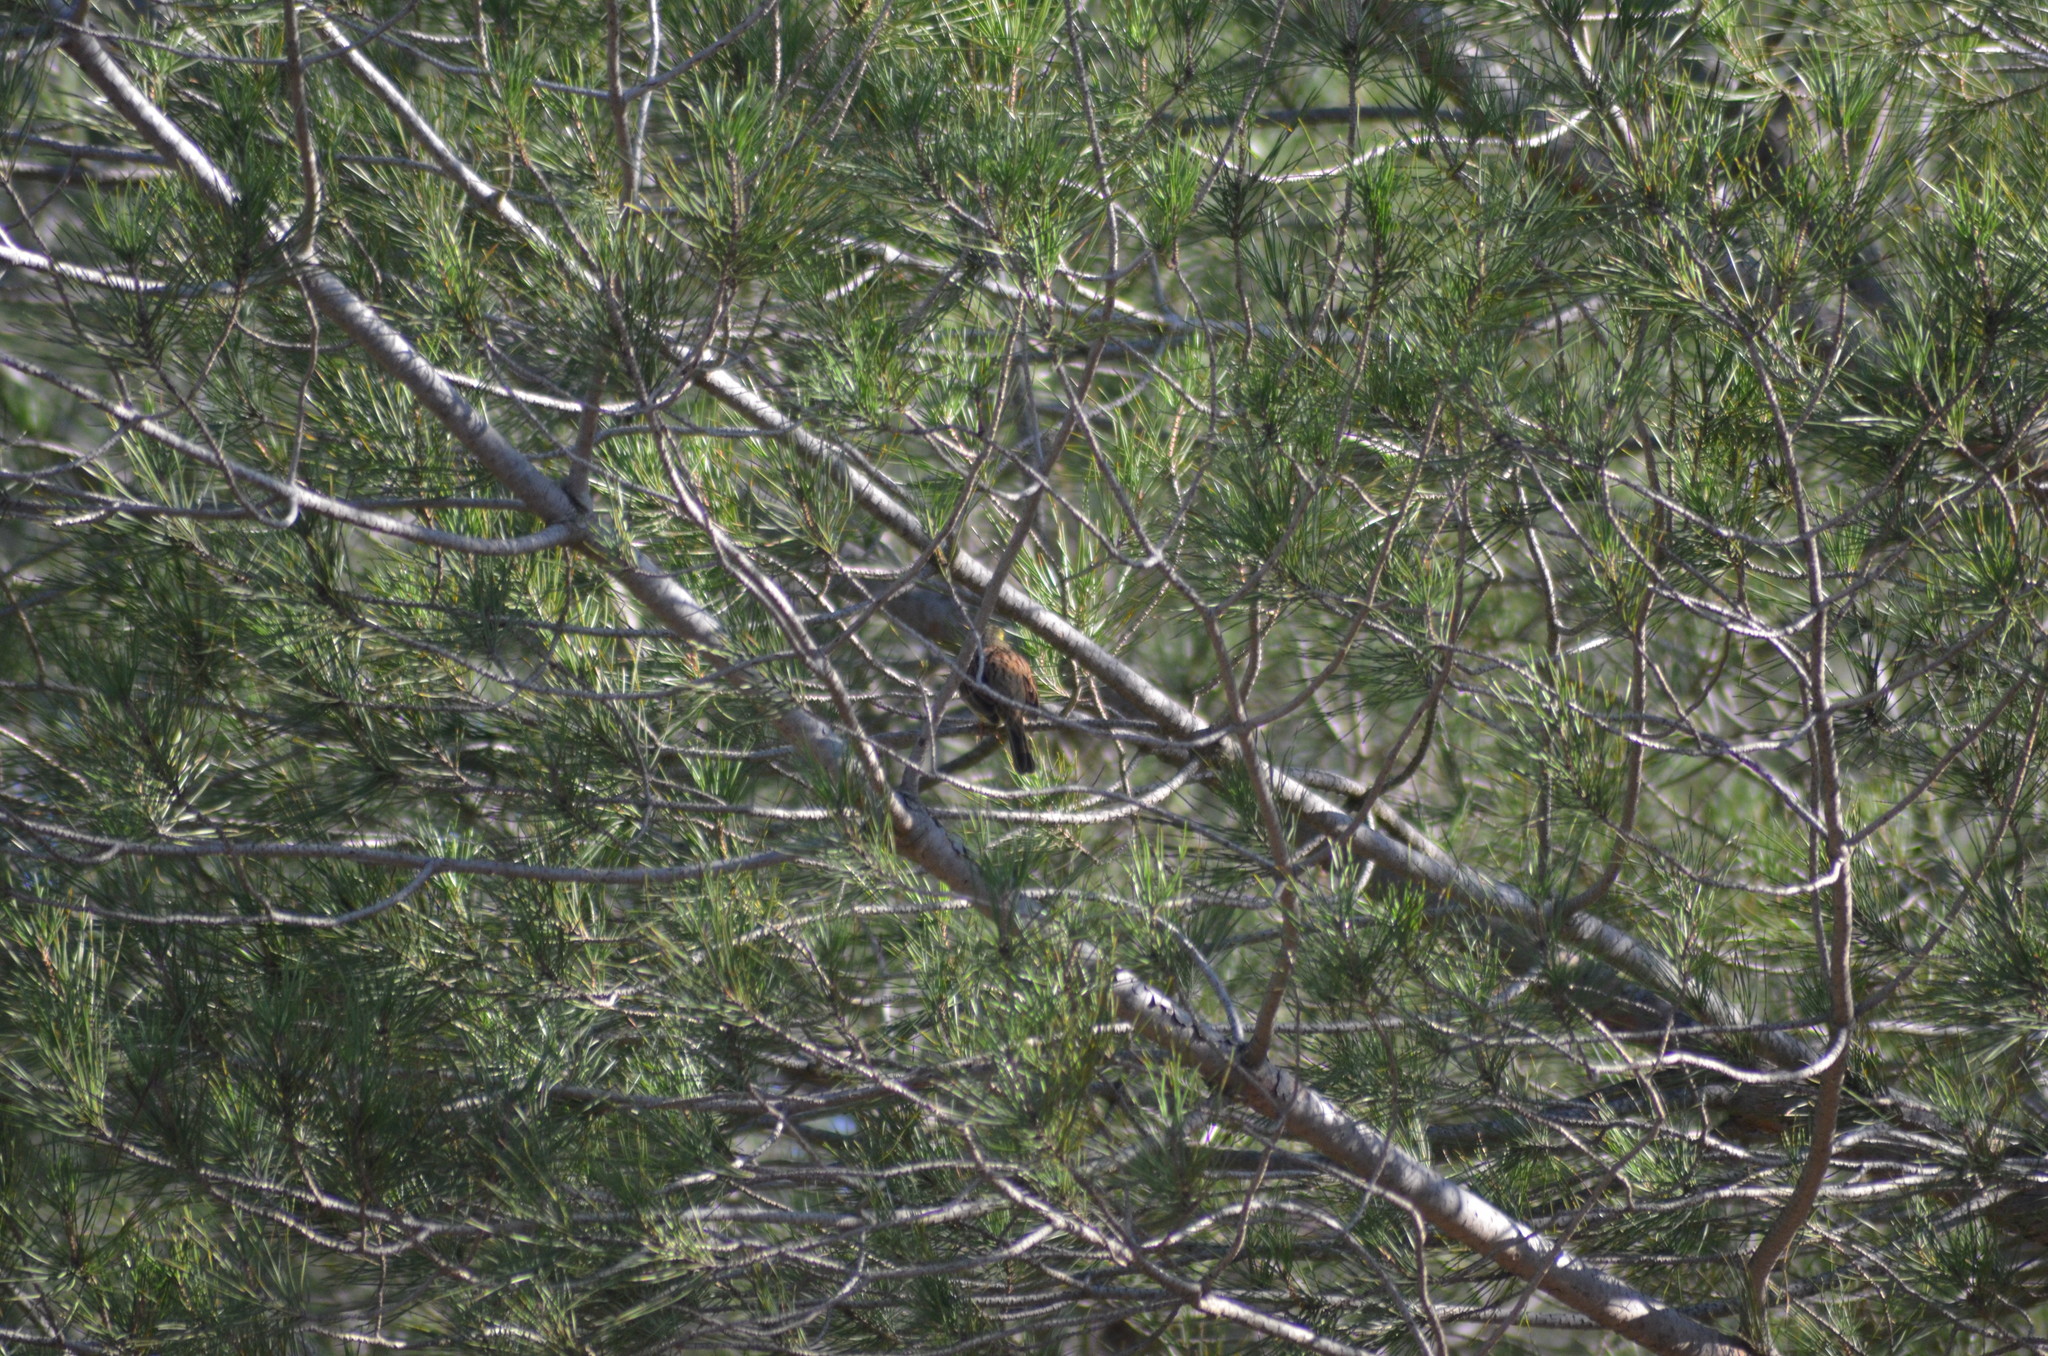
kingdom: Animalia
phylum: Chordata
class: Aves
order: Passeriformes
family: Emberizidae
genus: Emberiza
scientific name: Emberiza cirlus
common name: Cirl bunting
